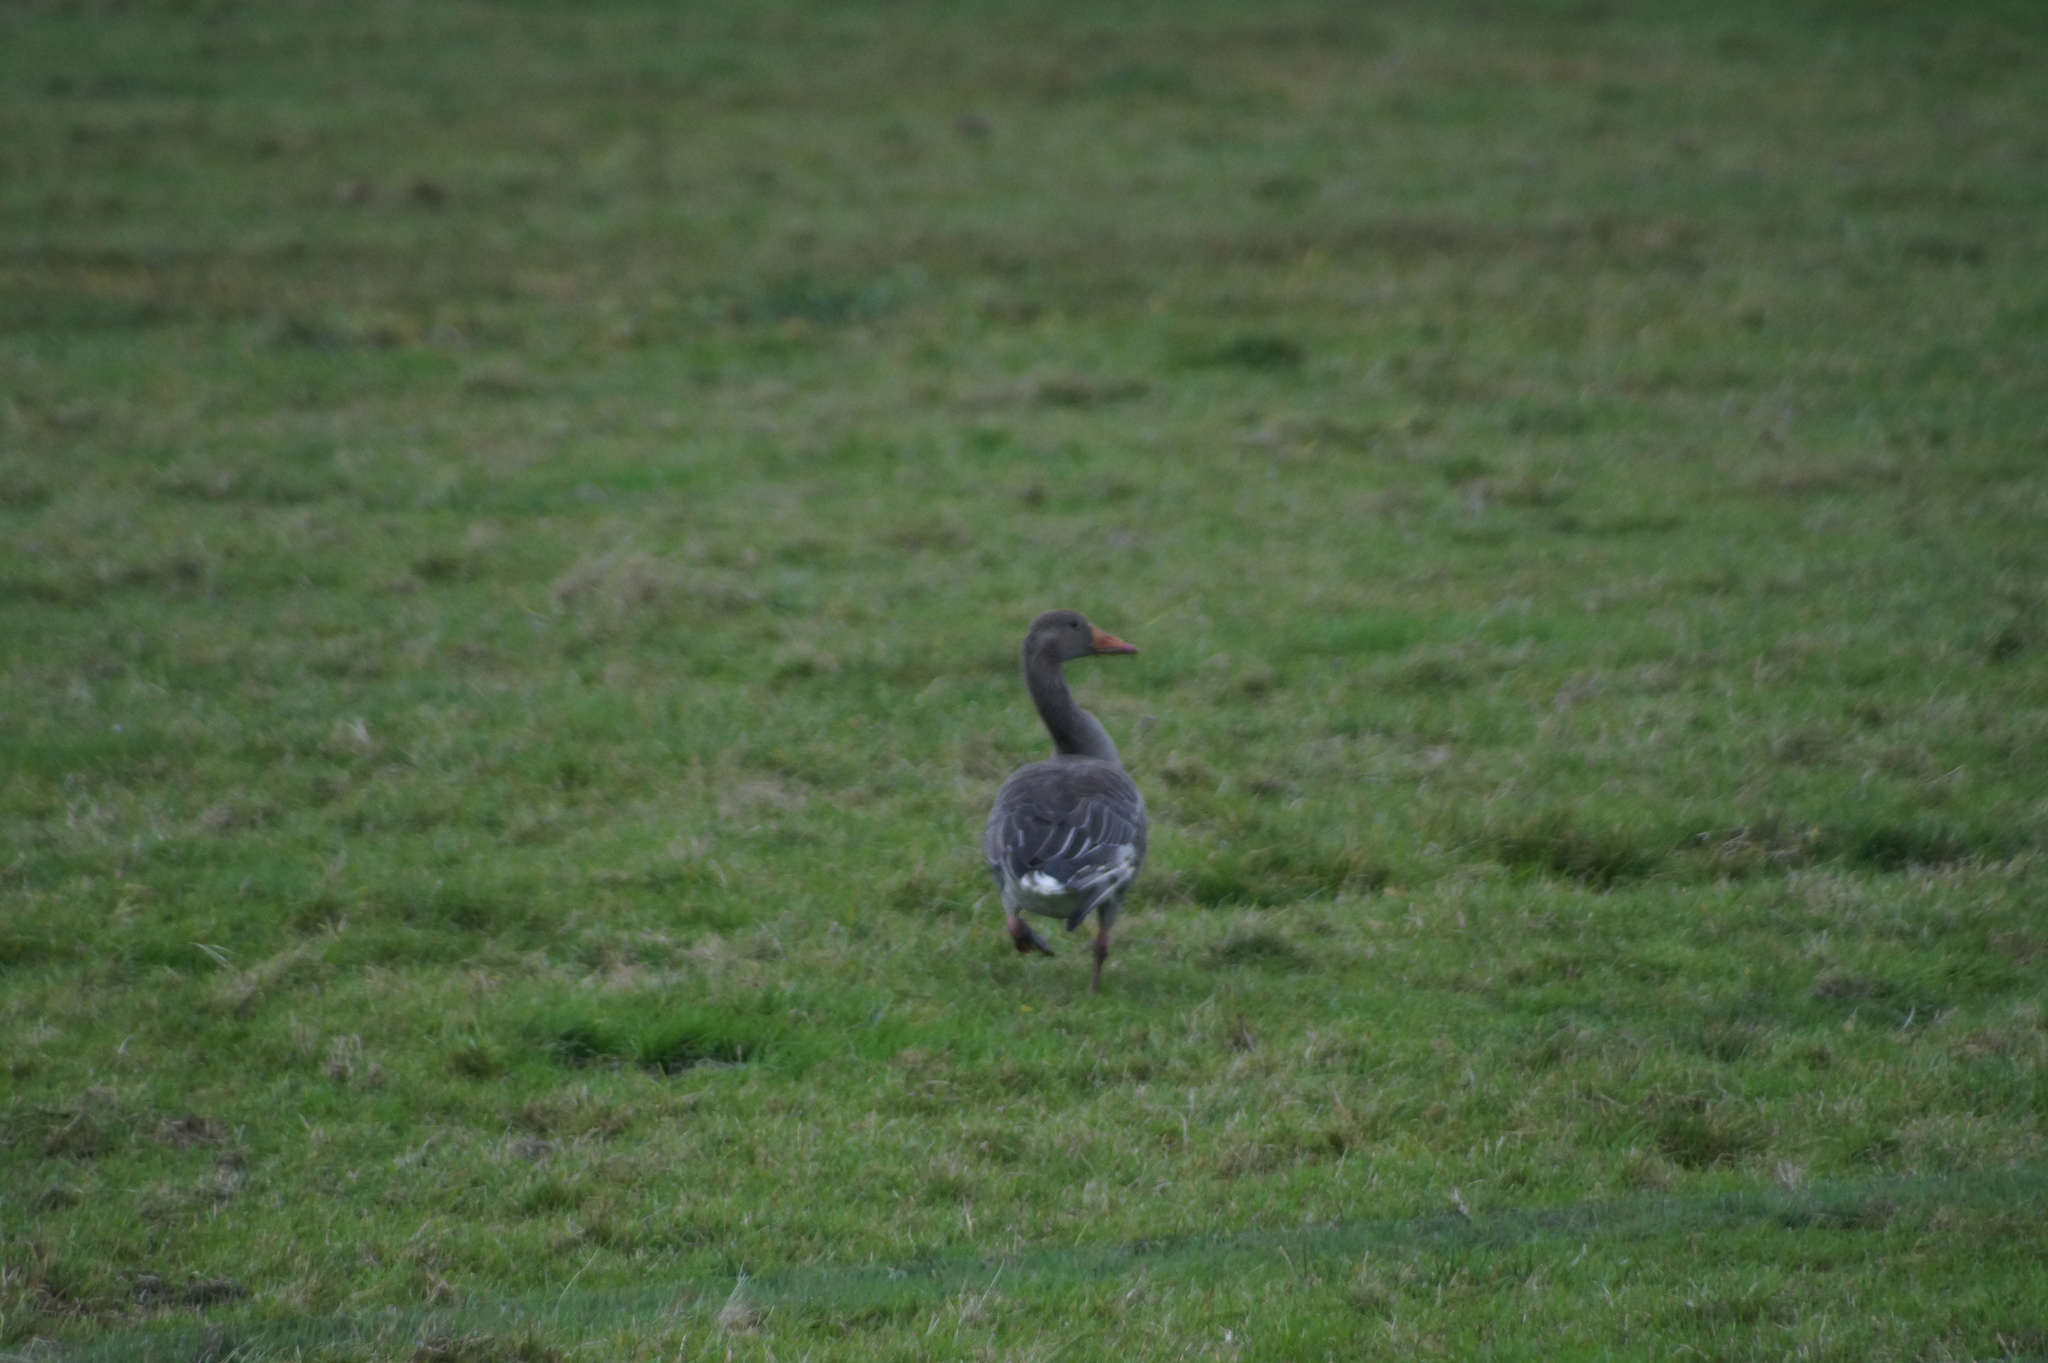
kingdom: Animalia
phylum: Chordata
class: Aves
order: Anseriformes
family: Anatidae
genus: Anser
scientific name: Anser anser
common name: Greylag goose
